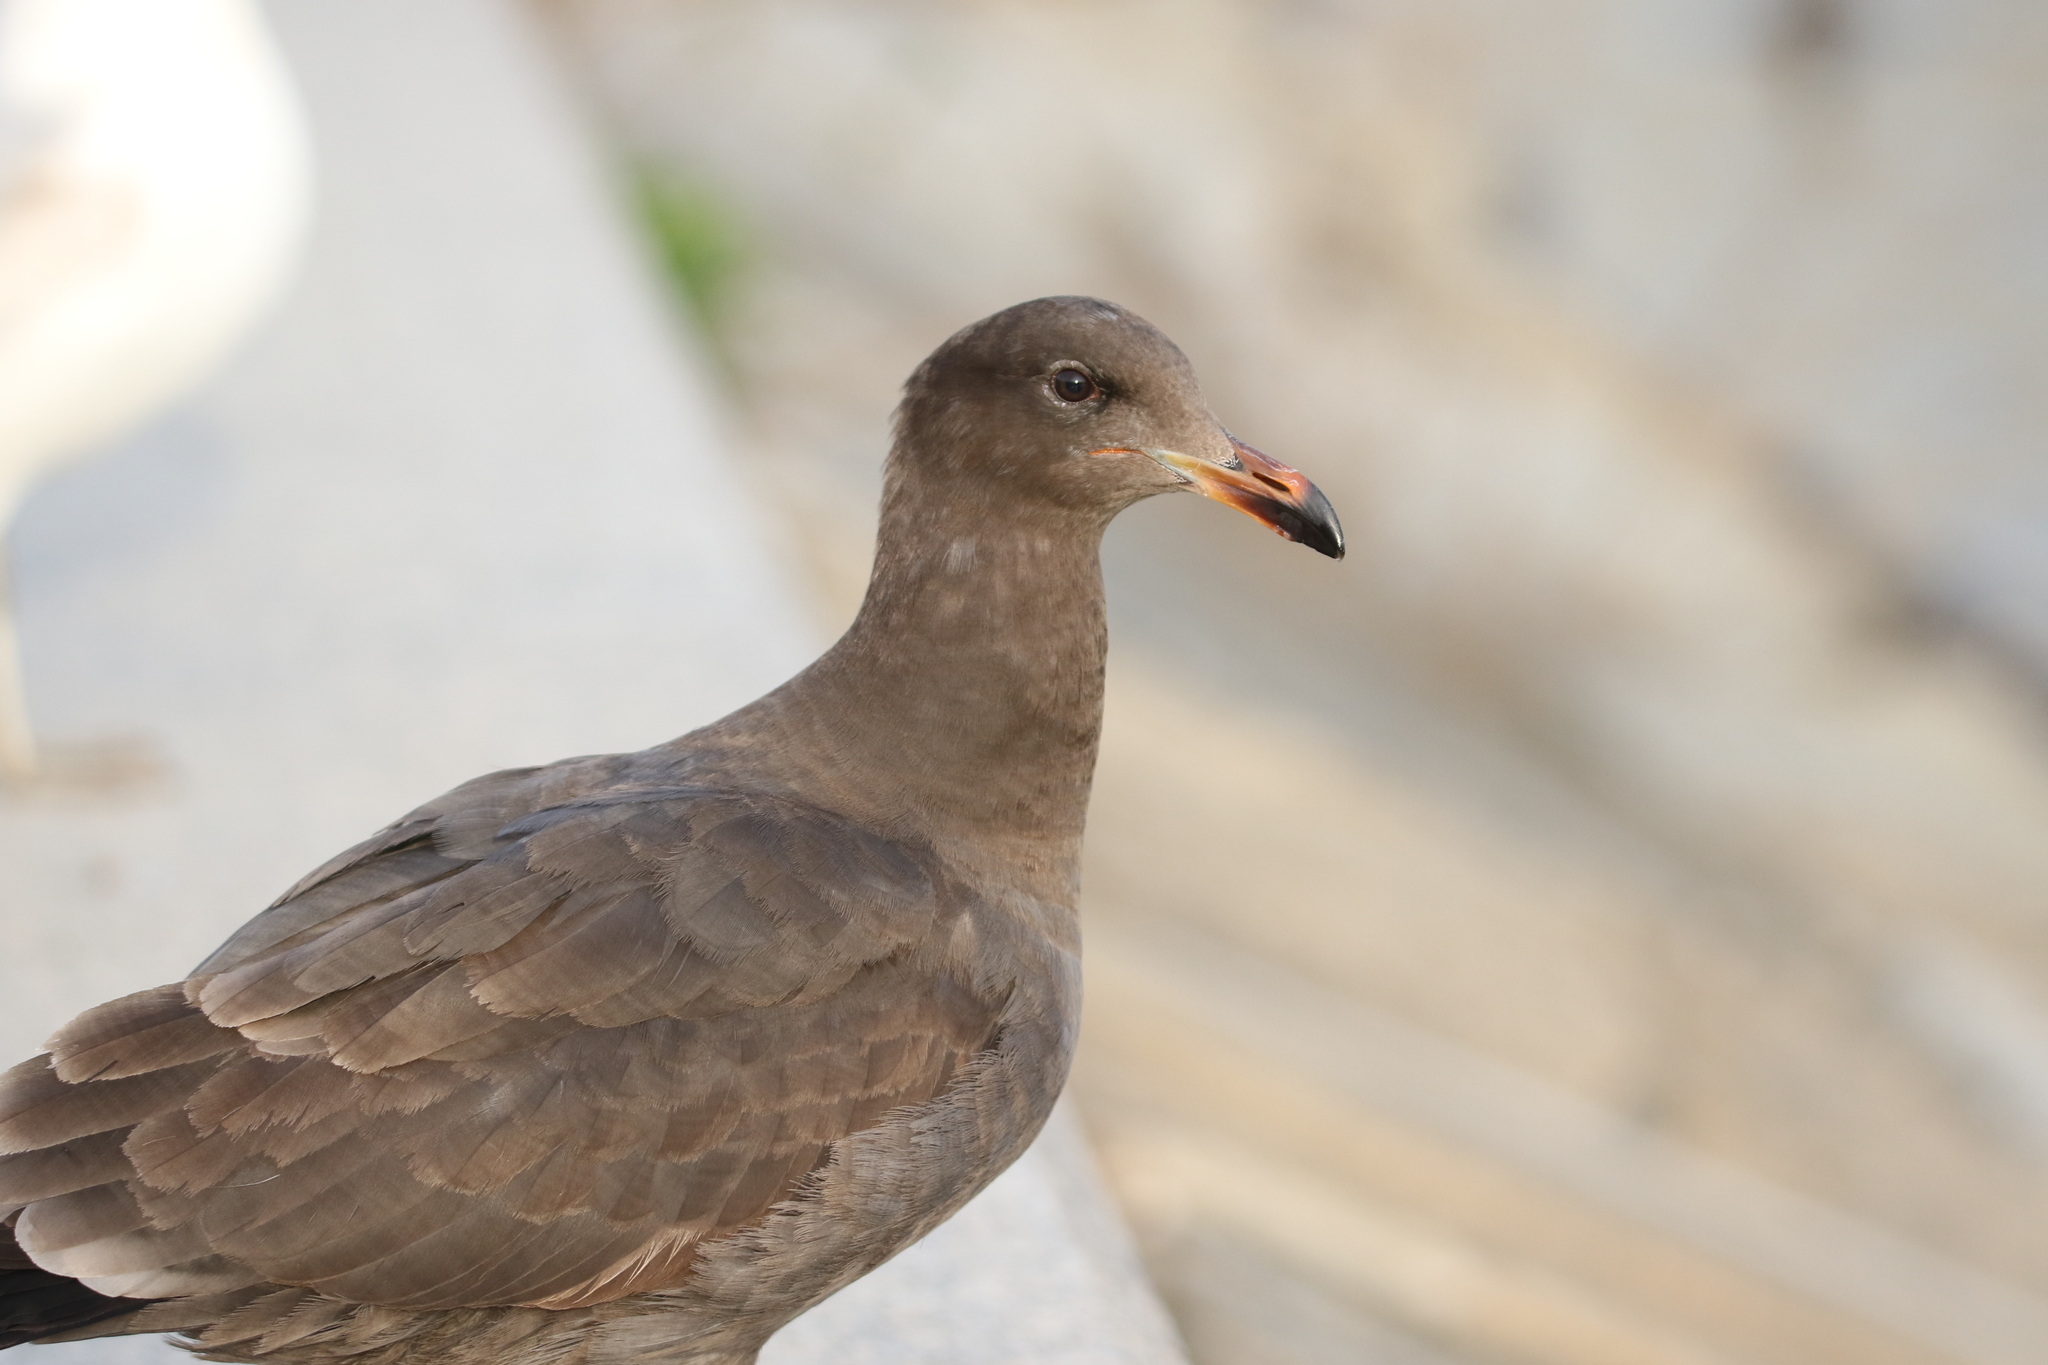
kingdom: Animalia
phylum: Chordata
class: Aves
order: Charadriiformes
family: Laridae
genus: Larus
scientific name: Larus heermanni
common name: Heermann's gull
